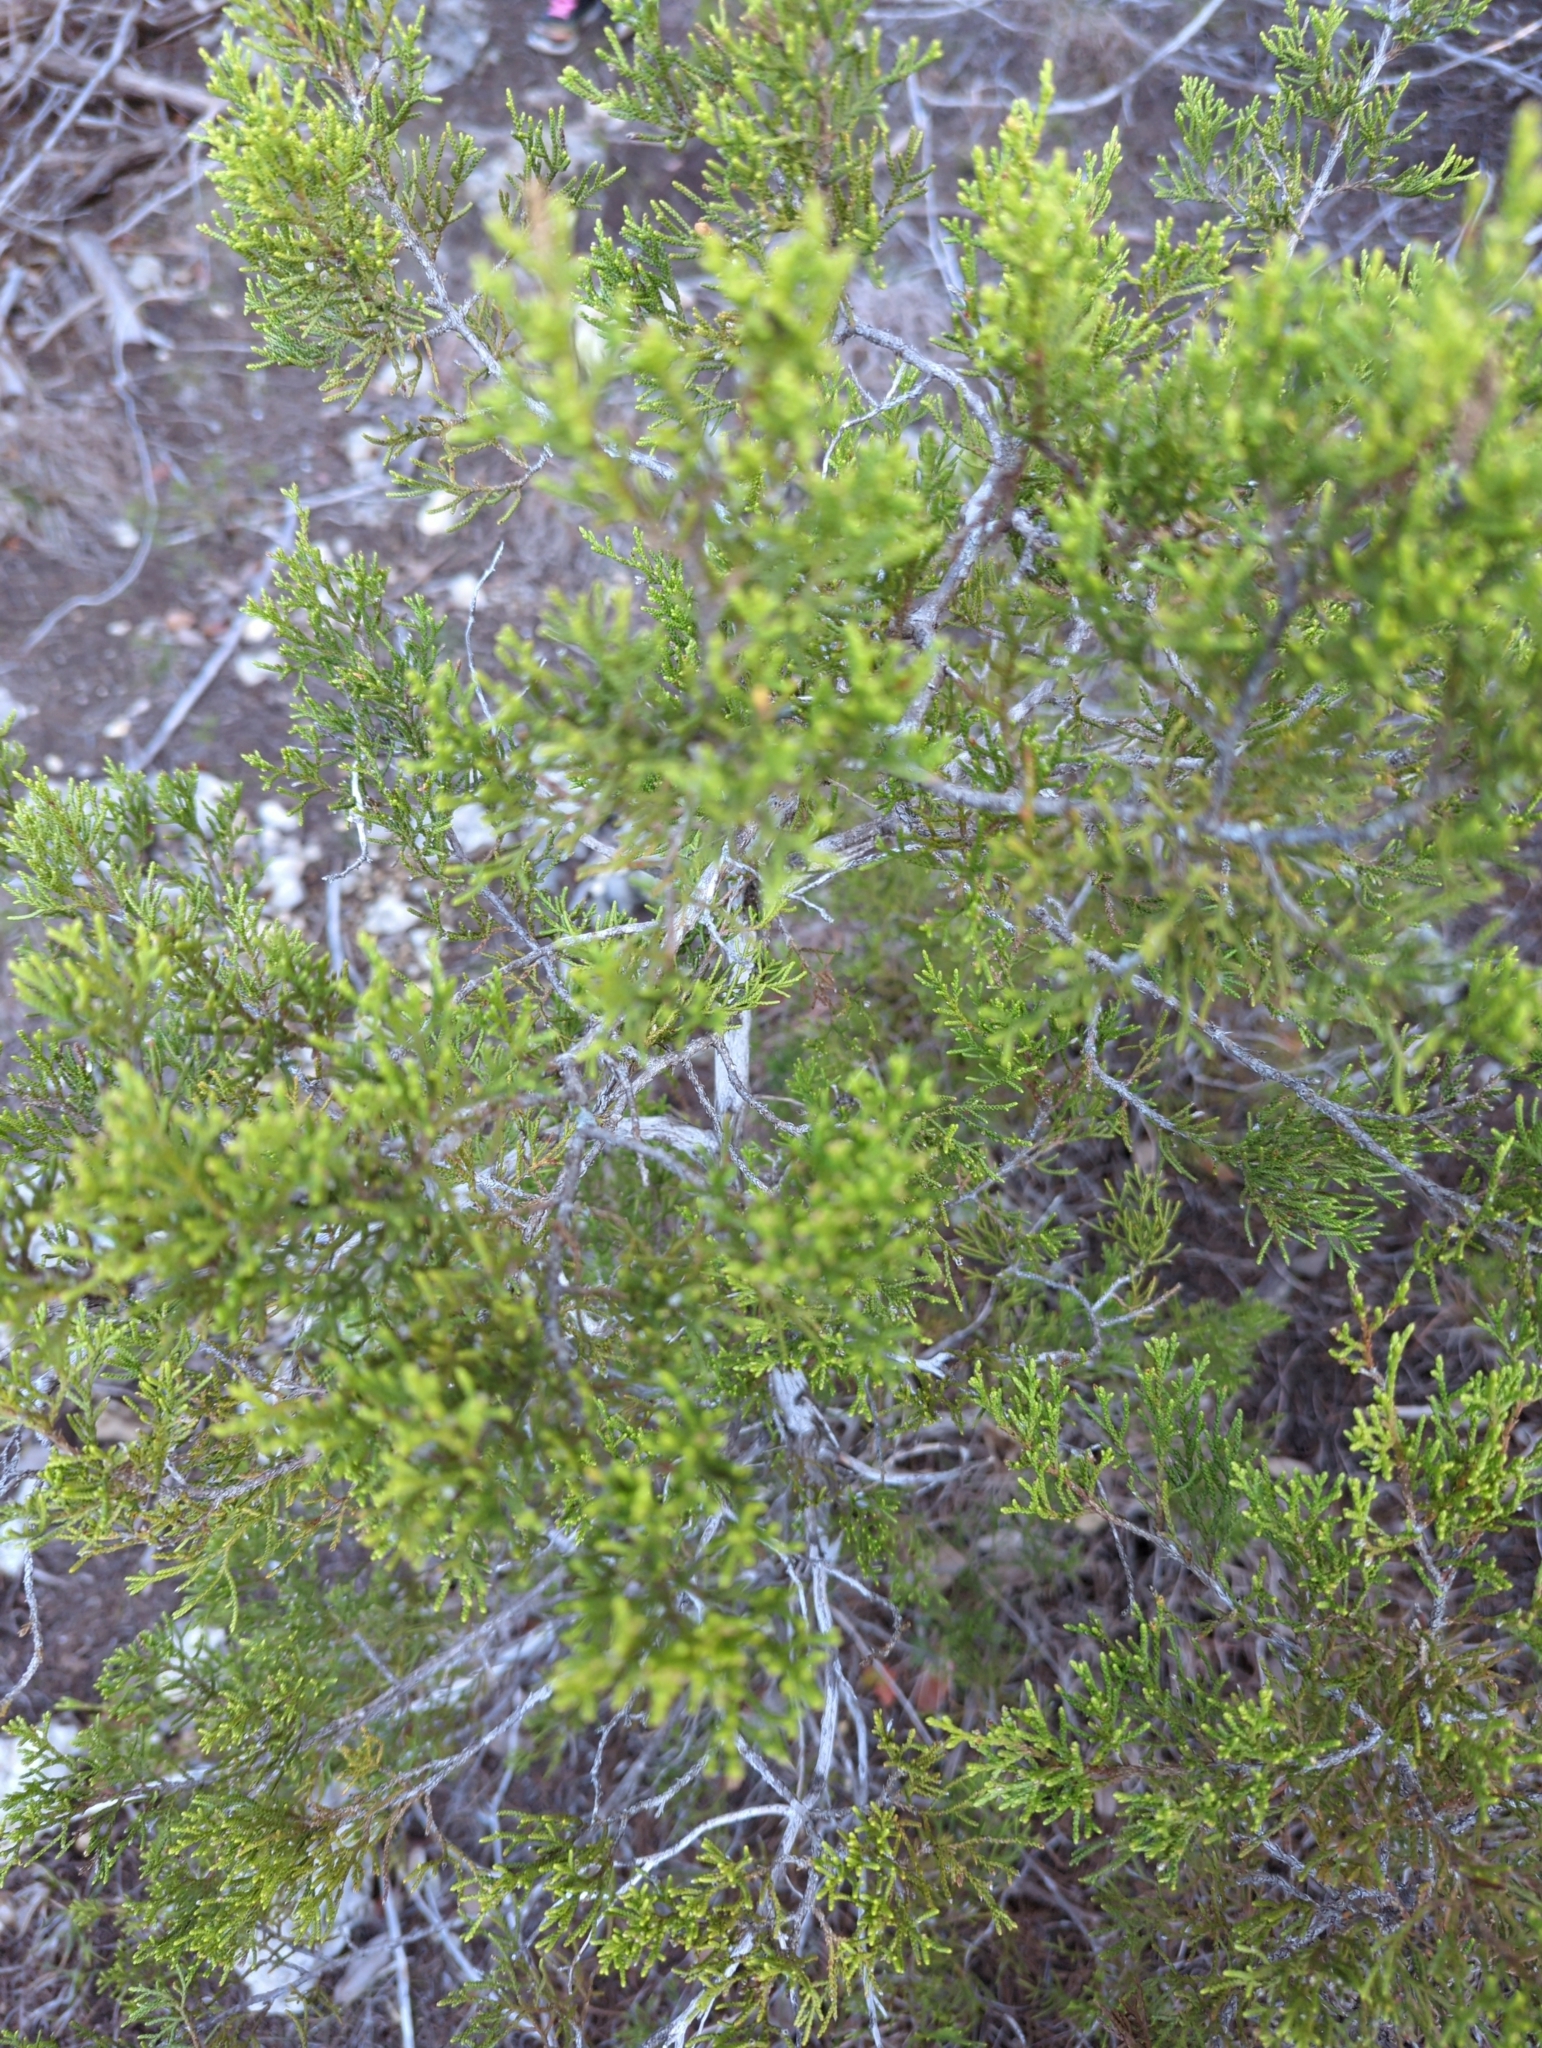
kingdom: Plantae
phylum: Tracheophyta
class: Pinopsida
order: Pinales
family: Cupressaceae
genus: Juniperus
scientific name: Juniperus ashei
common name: Mexican juniper
